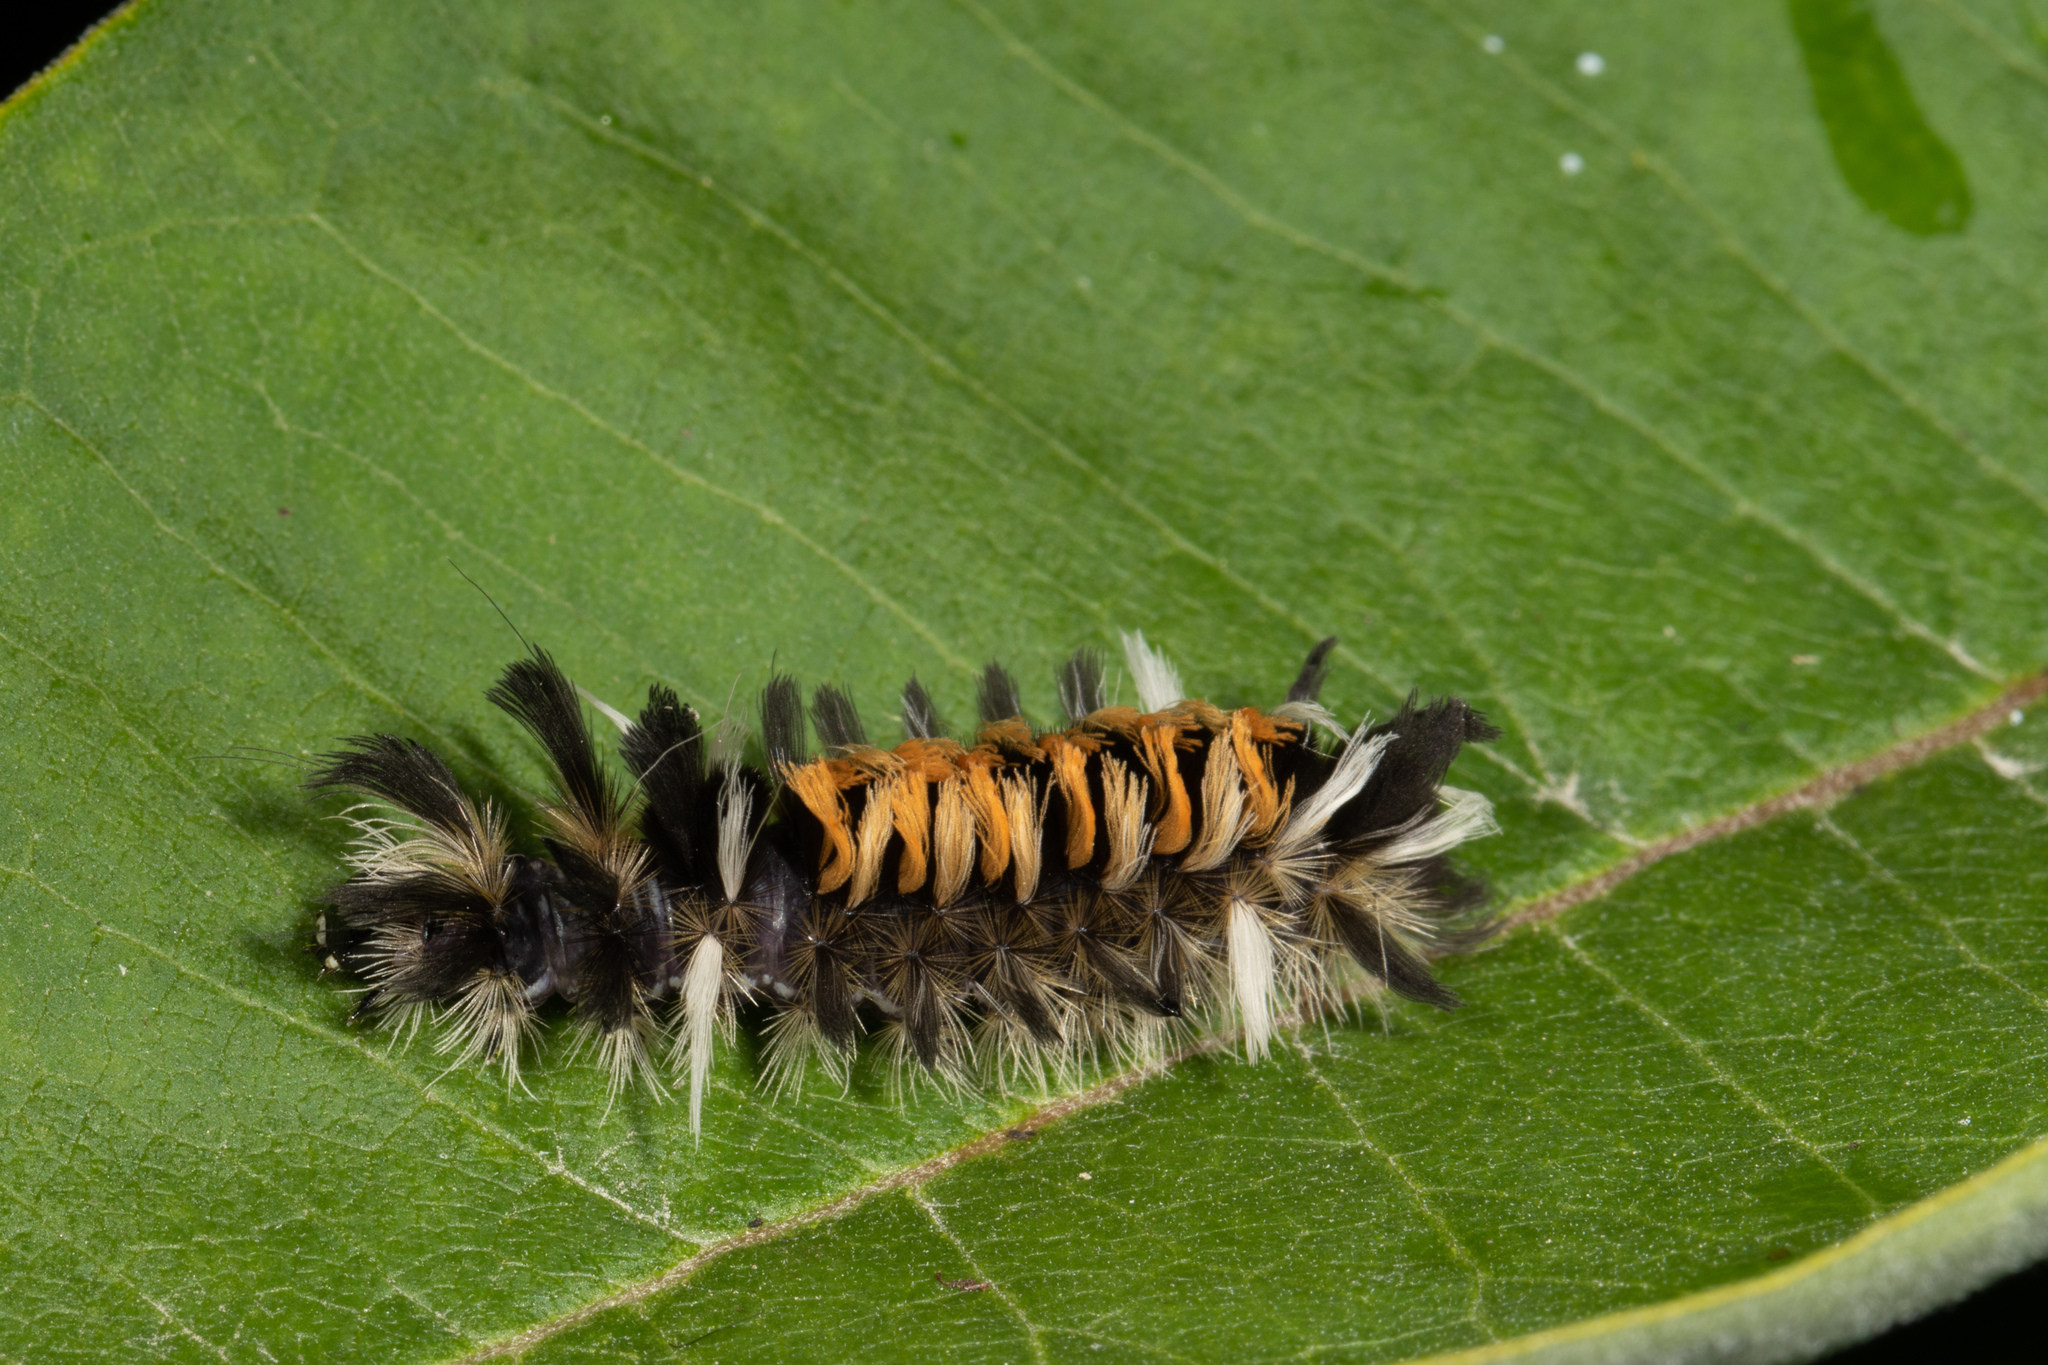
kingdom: Animalia
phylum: Arthropoda
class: Insecta
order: Lepidoptera
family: Erebidae
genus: Euchaetes
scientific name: Euchaetes egle
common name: Milkweed tussock moth
